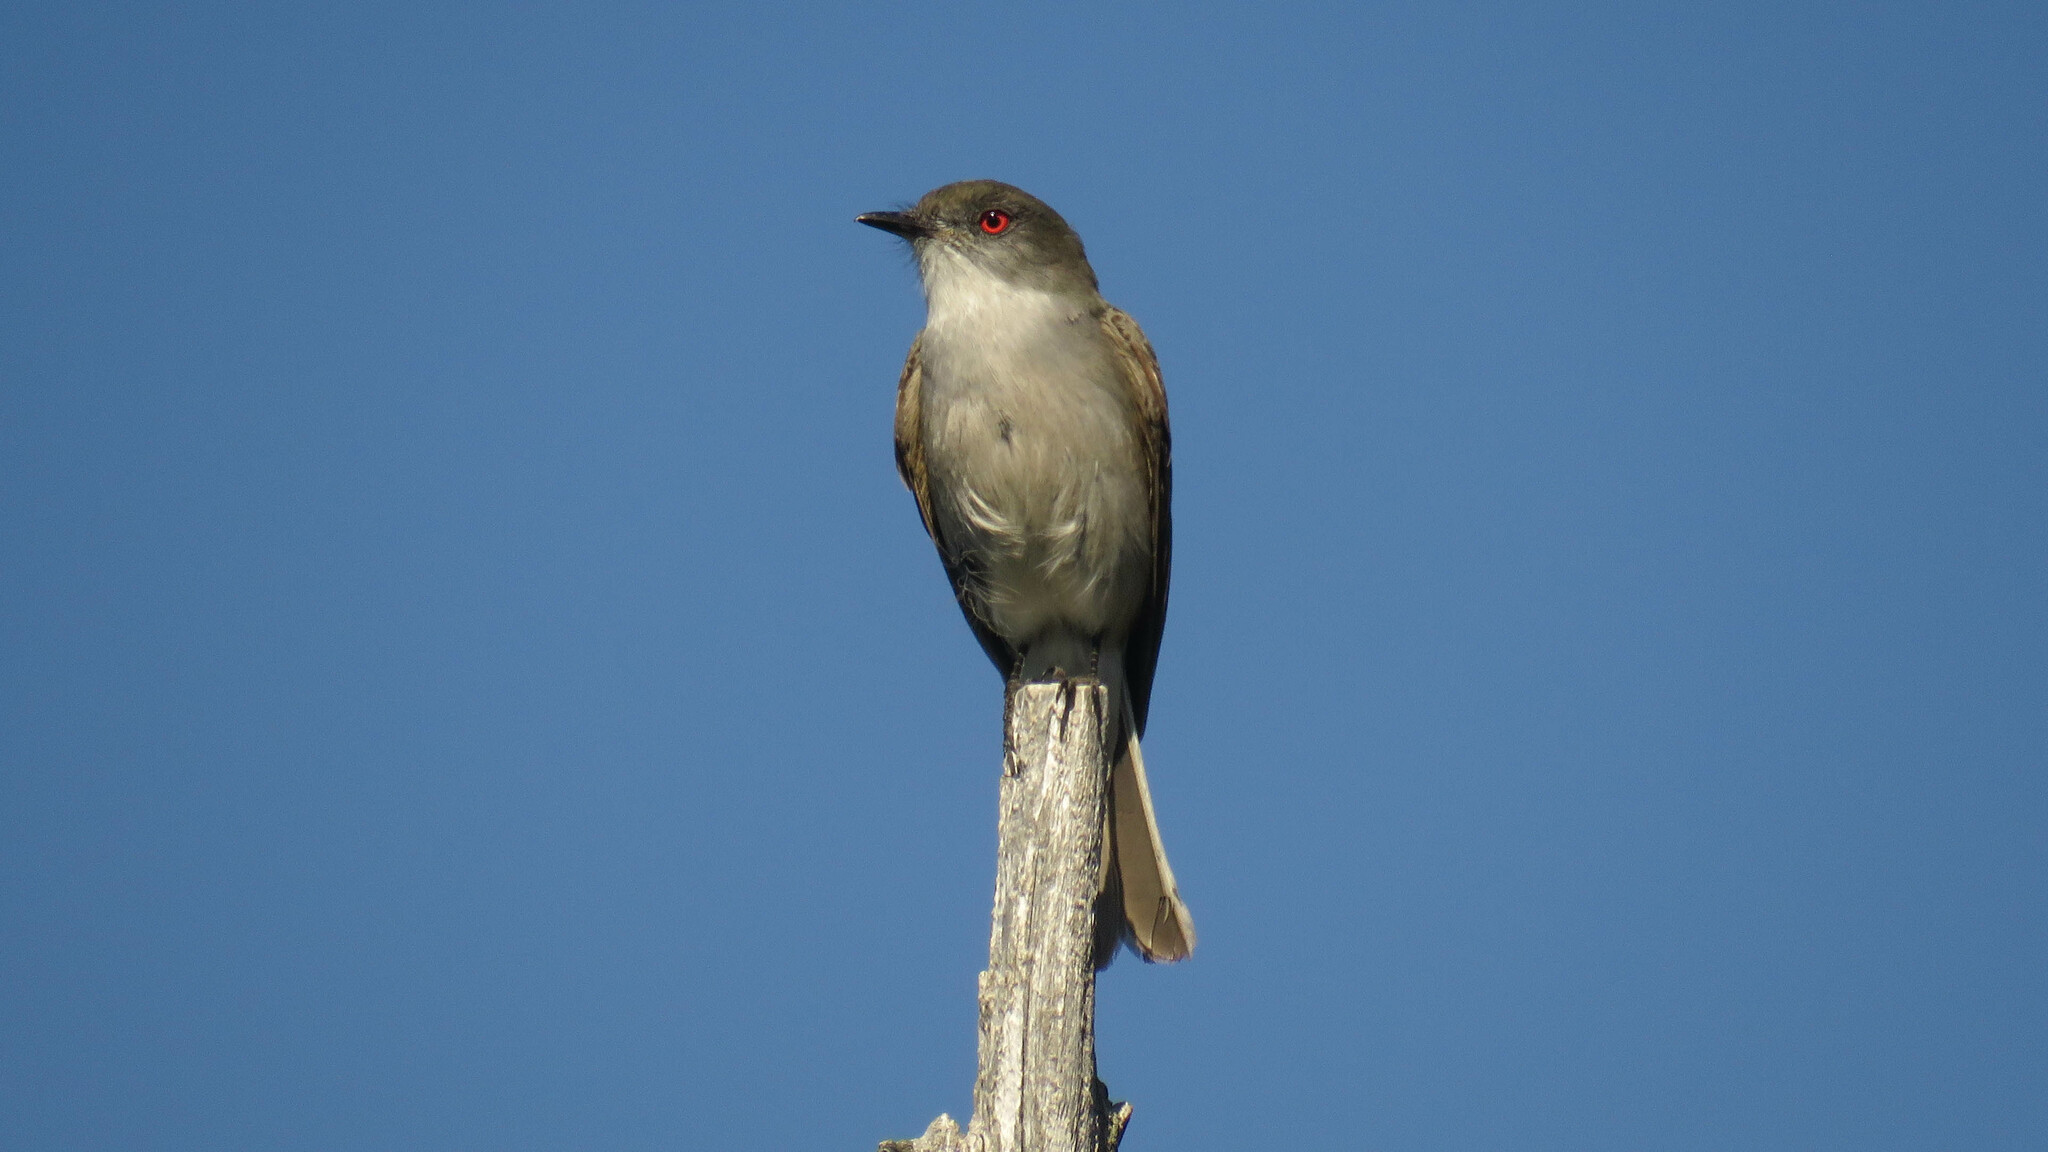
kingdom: Animalia
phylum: Chordata
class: Aves
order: Passeriformes
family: Tyrannidae
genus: Xolmis
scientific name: Xolmis pyrope
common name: Fire-eyed diucon
